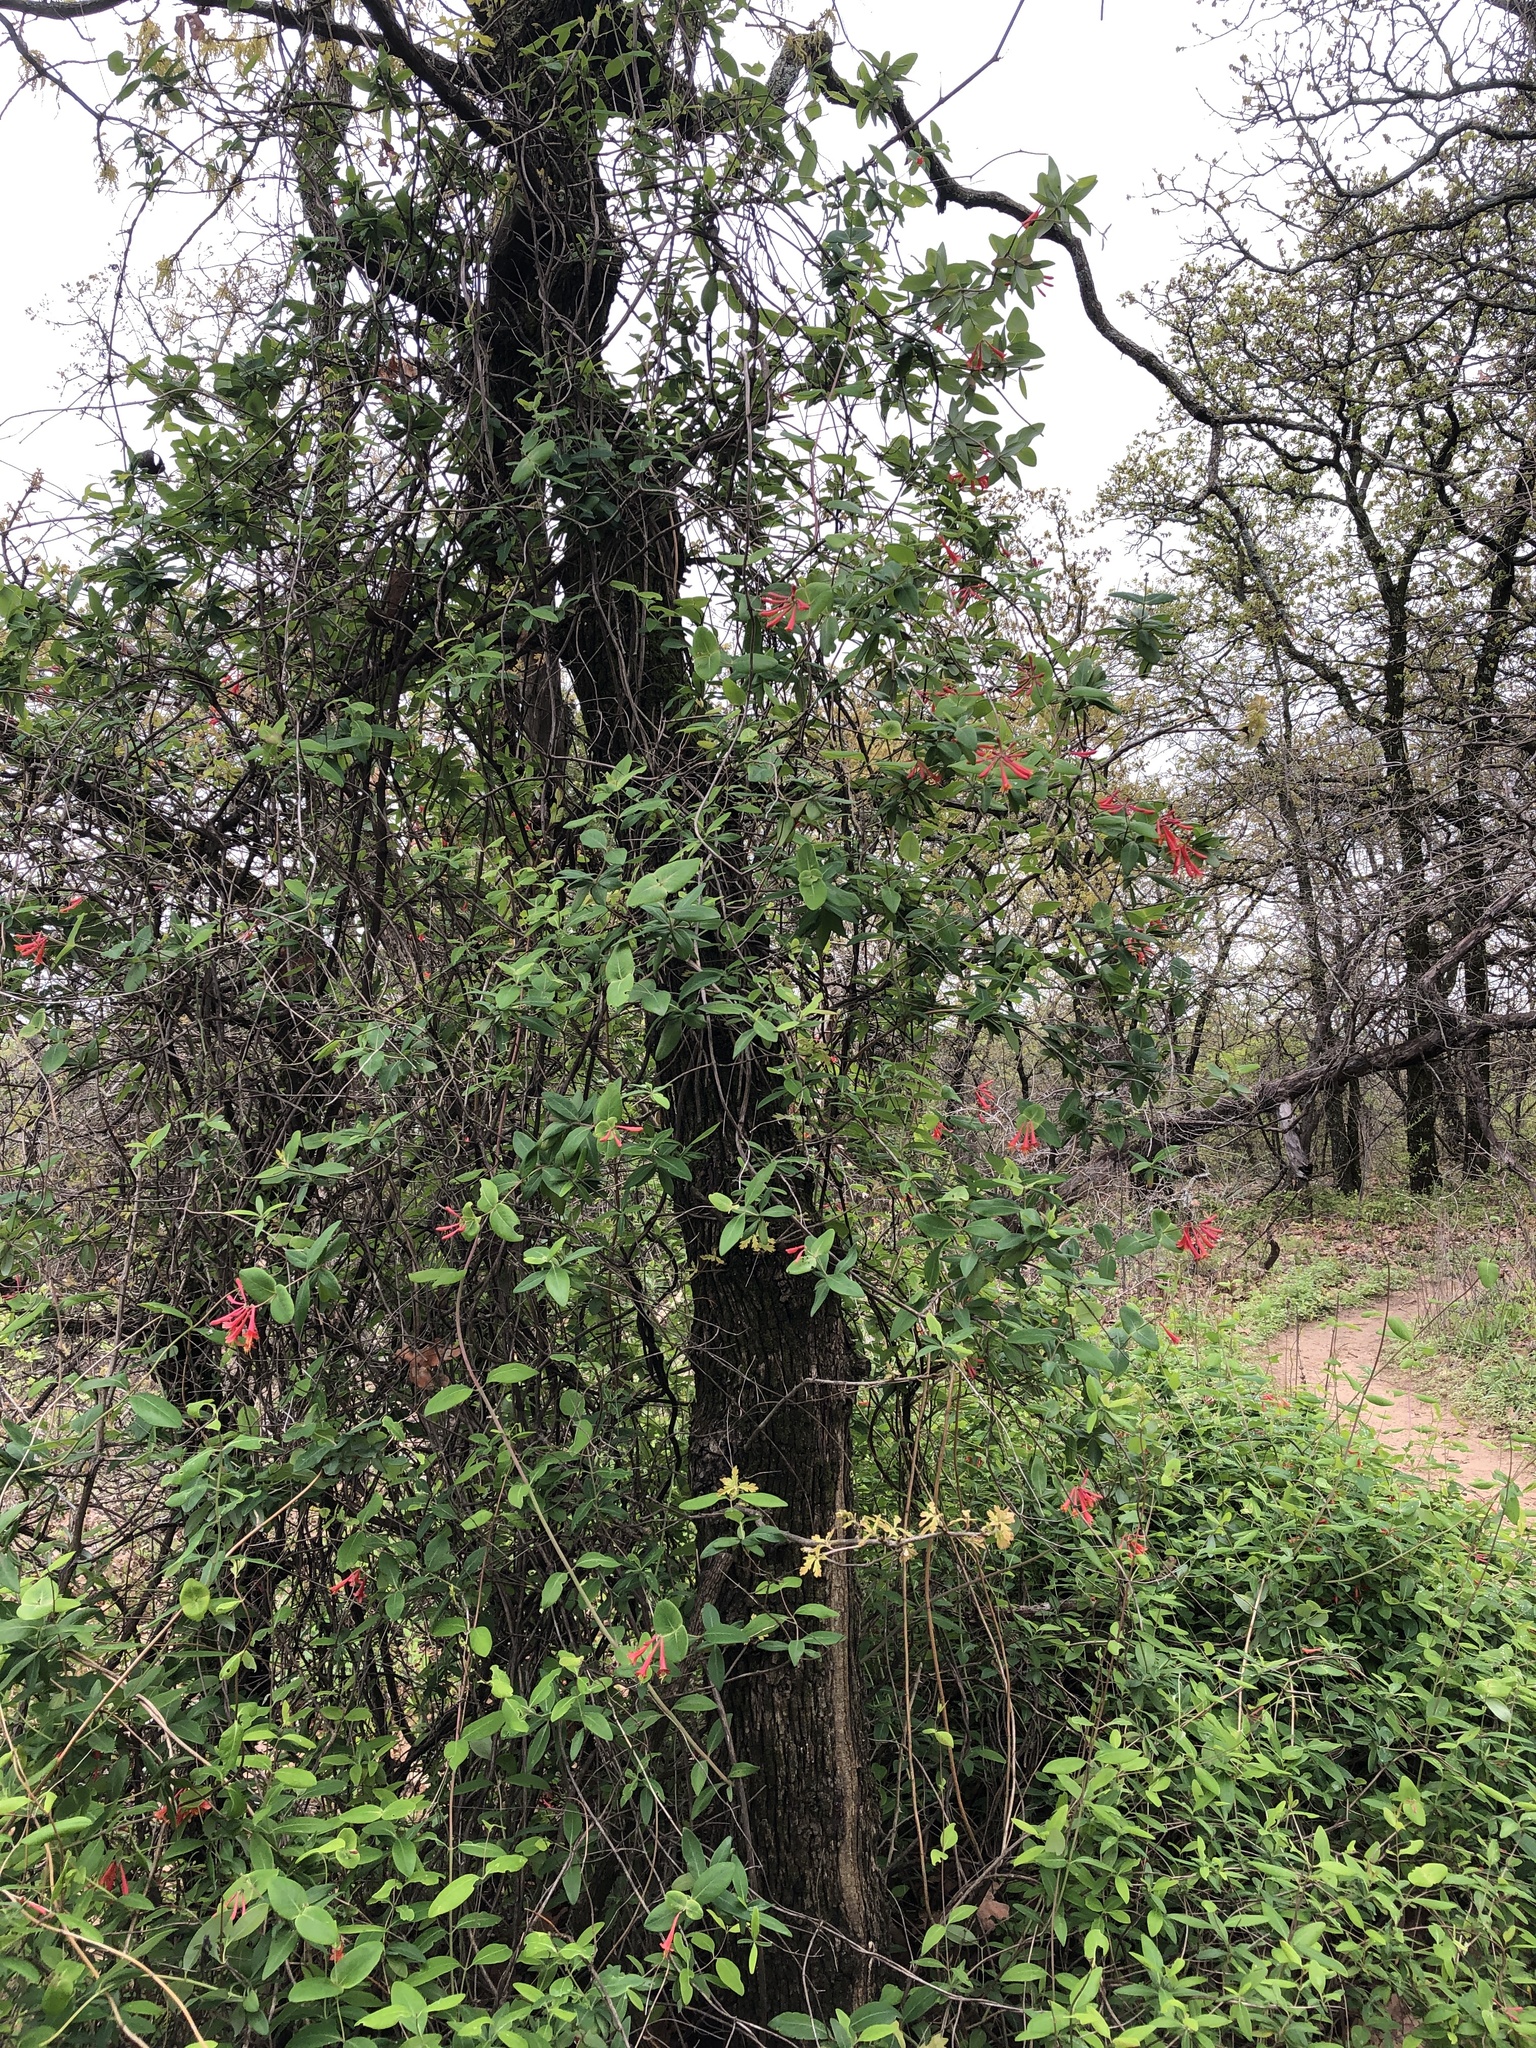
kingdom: Plantae
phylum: Tracheophyta
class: Magnoliopsida
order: Dipsacales
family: Caprifoliaceae
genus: Lonicera
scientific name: Lonicera sempervirens
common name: Coral honeysuckle
